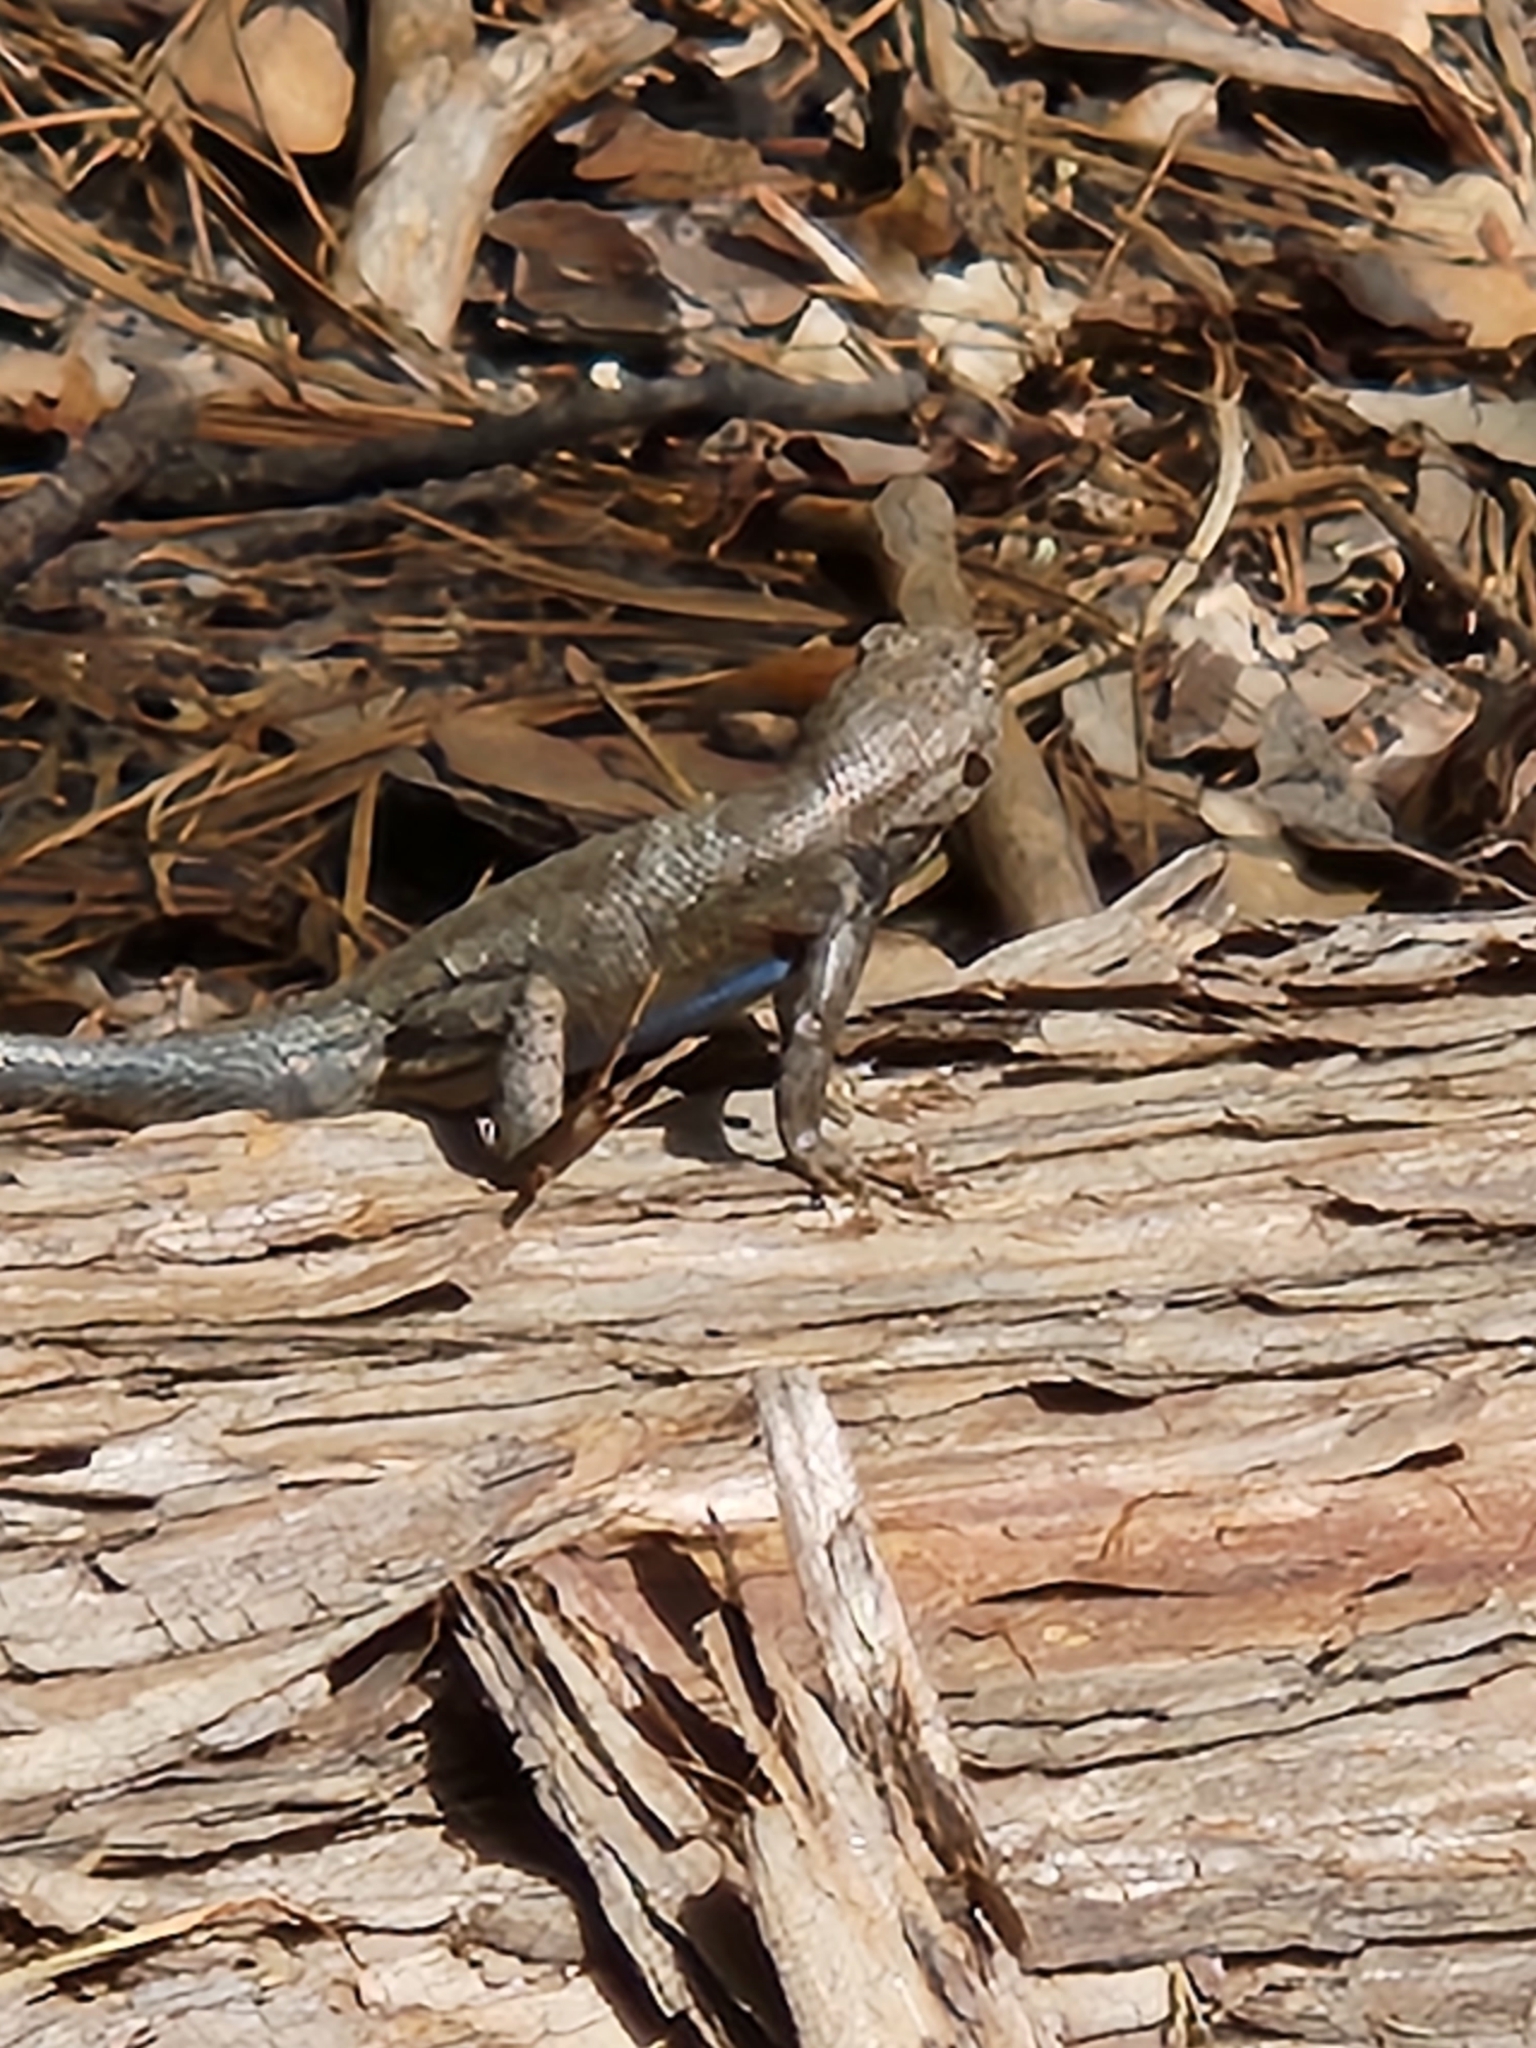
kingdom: Animalia
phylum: Chordata
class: Squamata
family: Phrynosomatidae
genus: Sceloporus
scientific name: Sceloporus graciosus
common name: Sagebrush lizard
